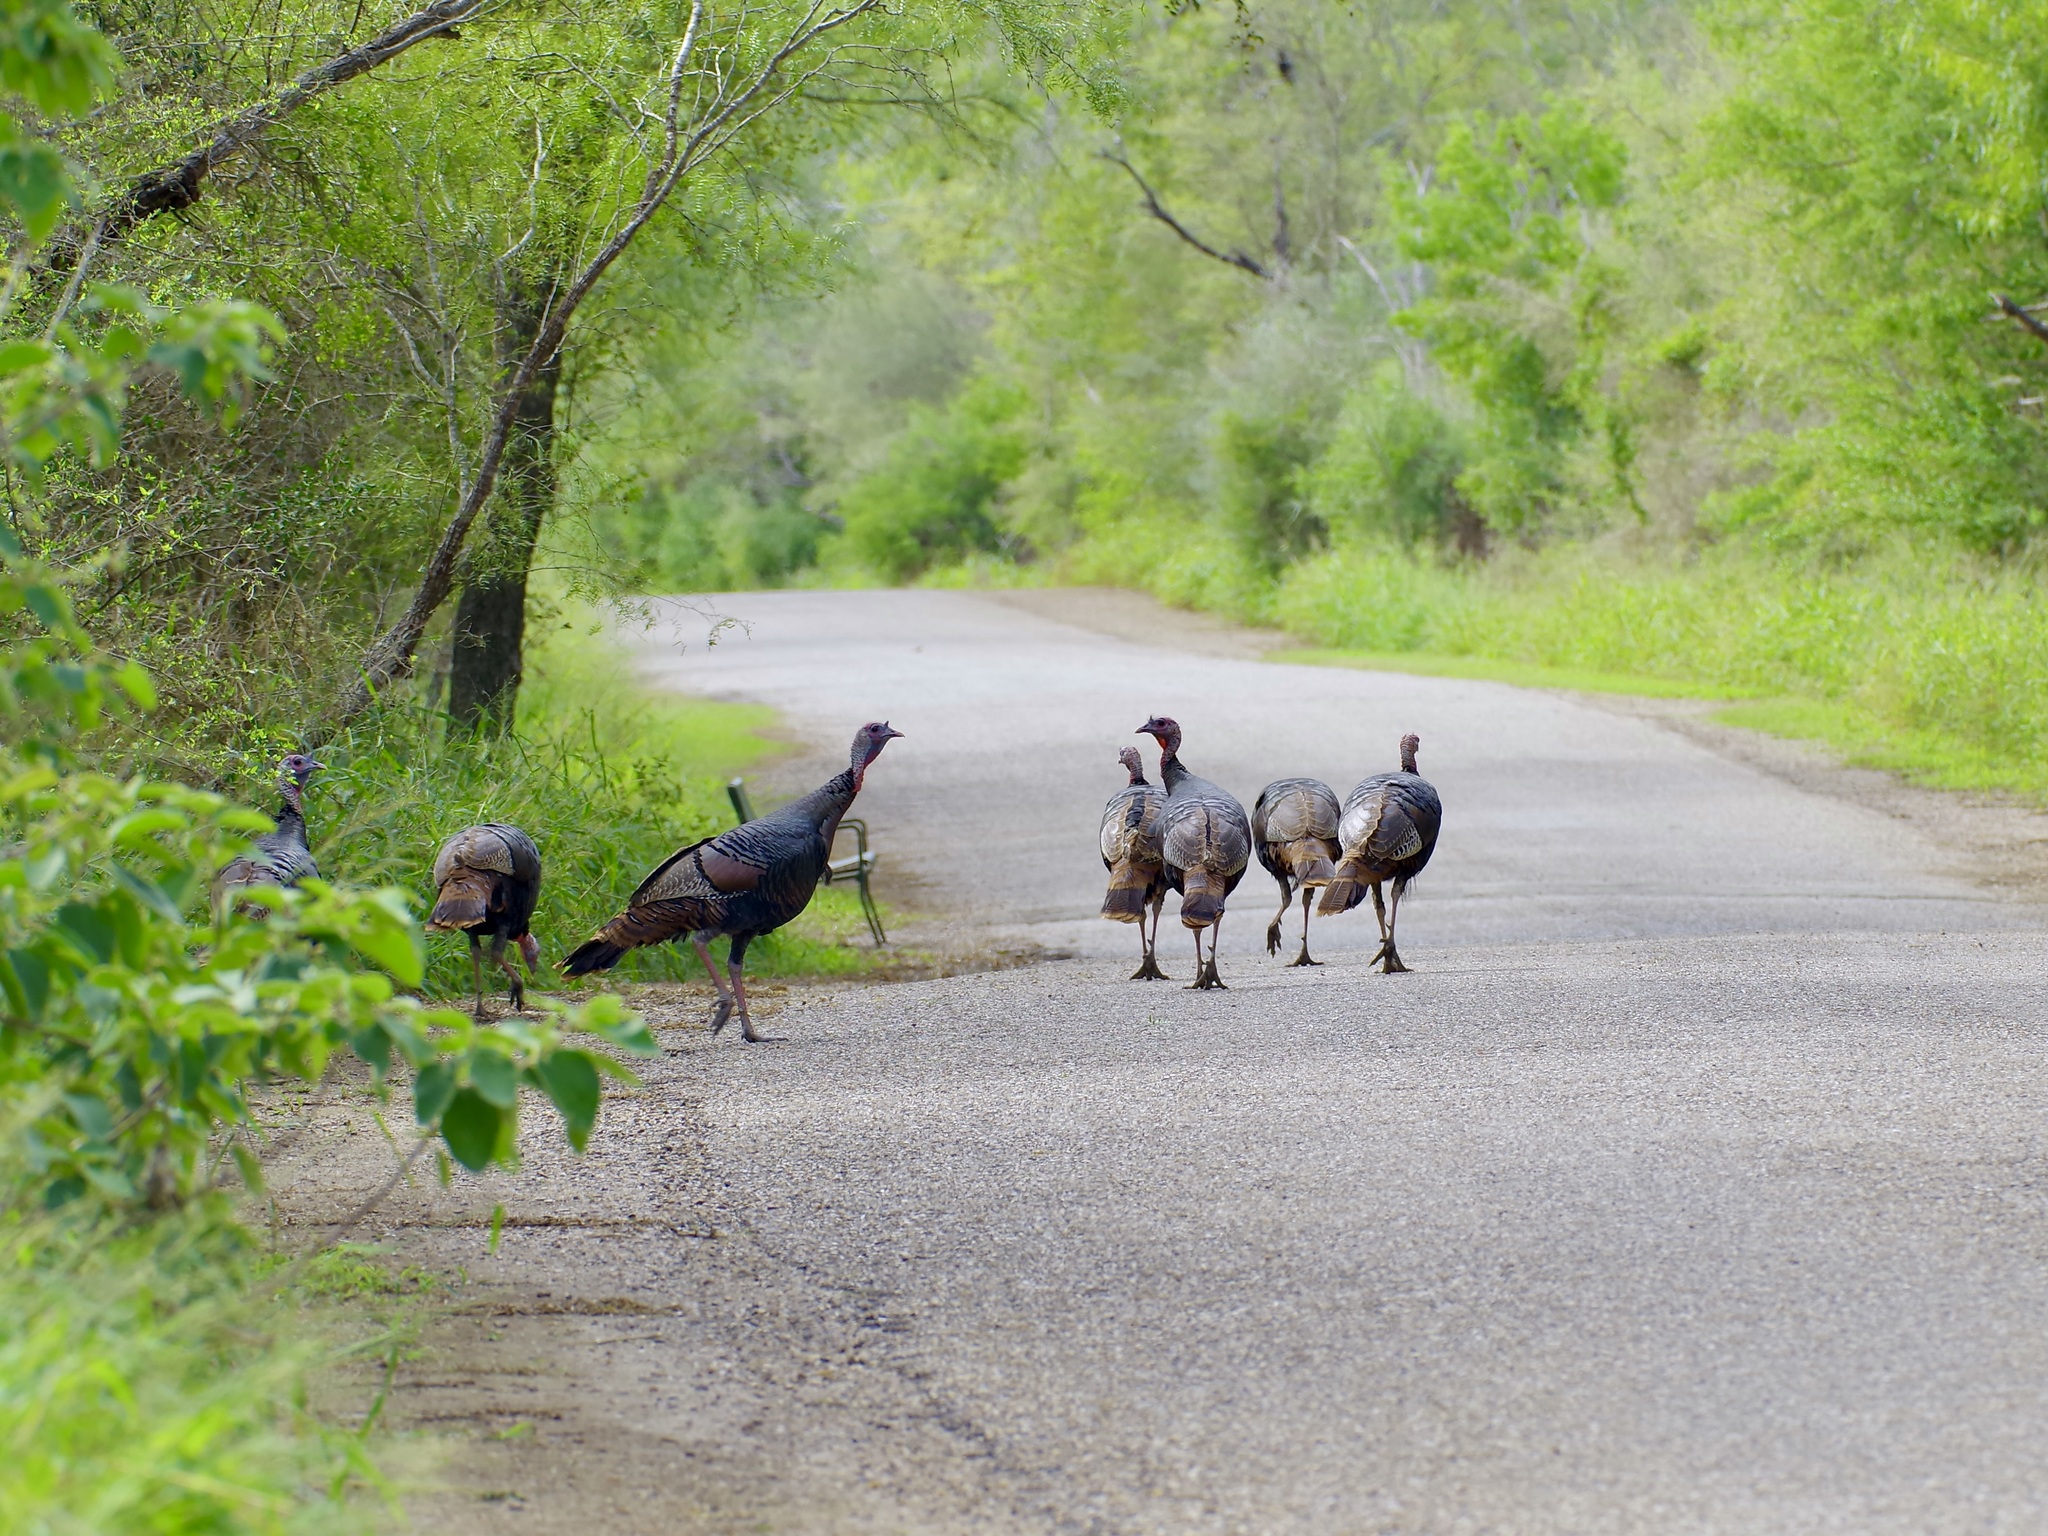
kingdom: Animalia
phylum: Chordata
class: Aves
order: Galliformes
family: Phasianidae
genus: Meleagris
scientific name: Meleagris gallopavo
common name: Wild turkey
